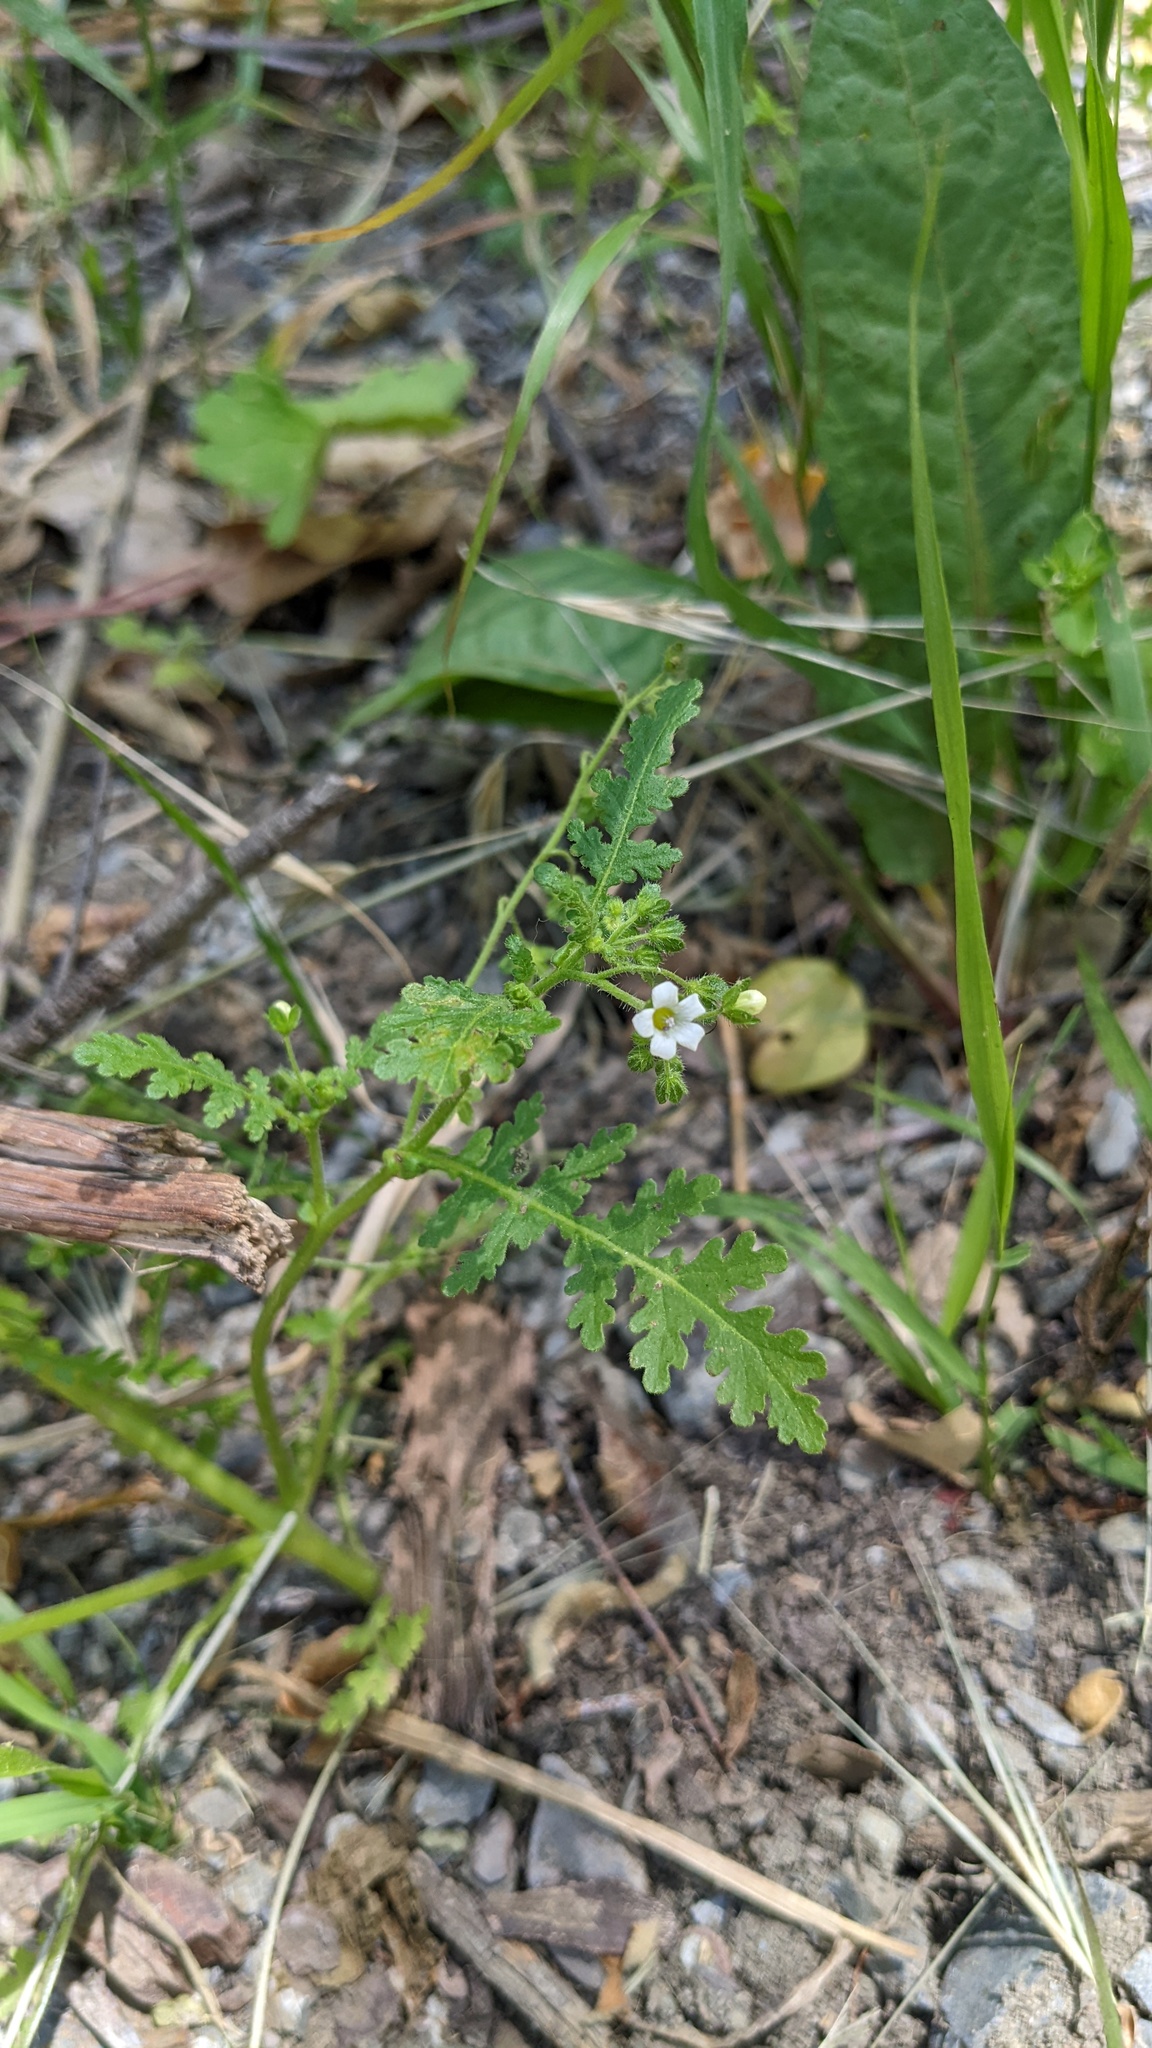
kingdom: Plantae
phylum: Tracheophyta
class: Magnoliopsida
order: Boraginales
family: Hydrophyllaceae
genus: Eucrypta
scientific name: Eucrypta chrysanthemifolia
